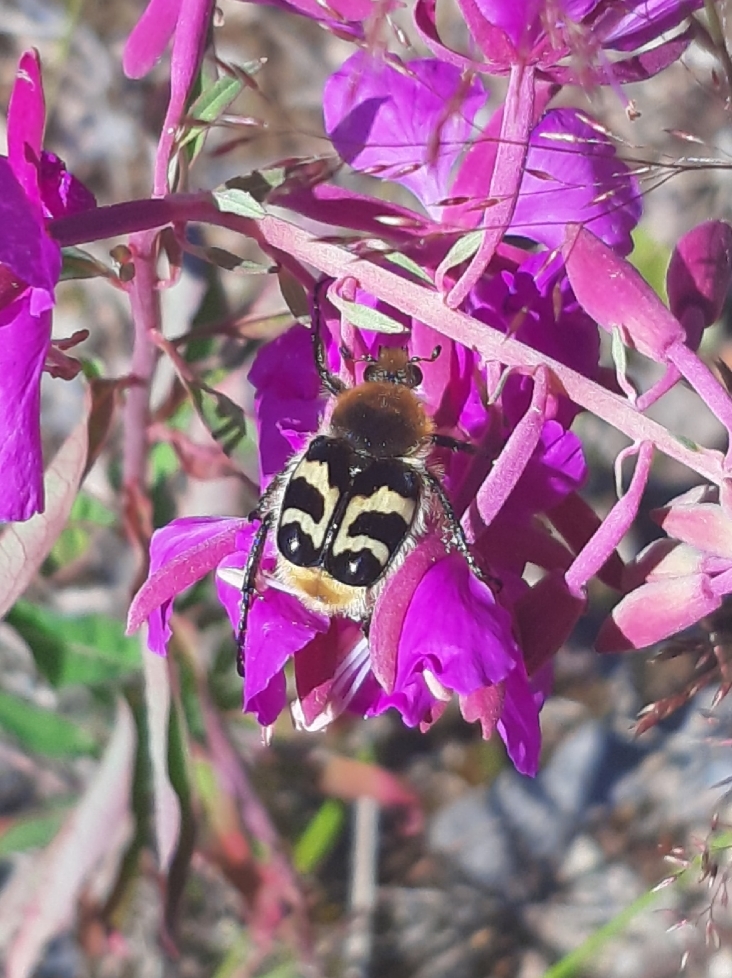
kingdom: Animalia
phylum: Arthropoda
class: Insecta
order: Coleoptera
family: Scarabaeidae
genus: Trichius
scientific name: Trichius fasciatus
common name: Bee beetle
